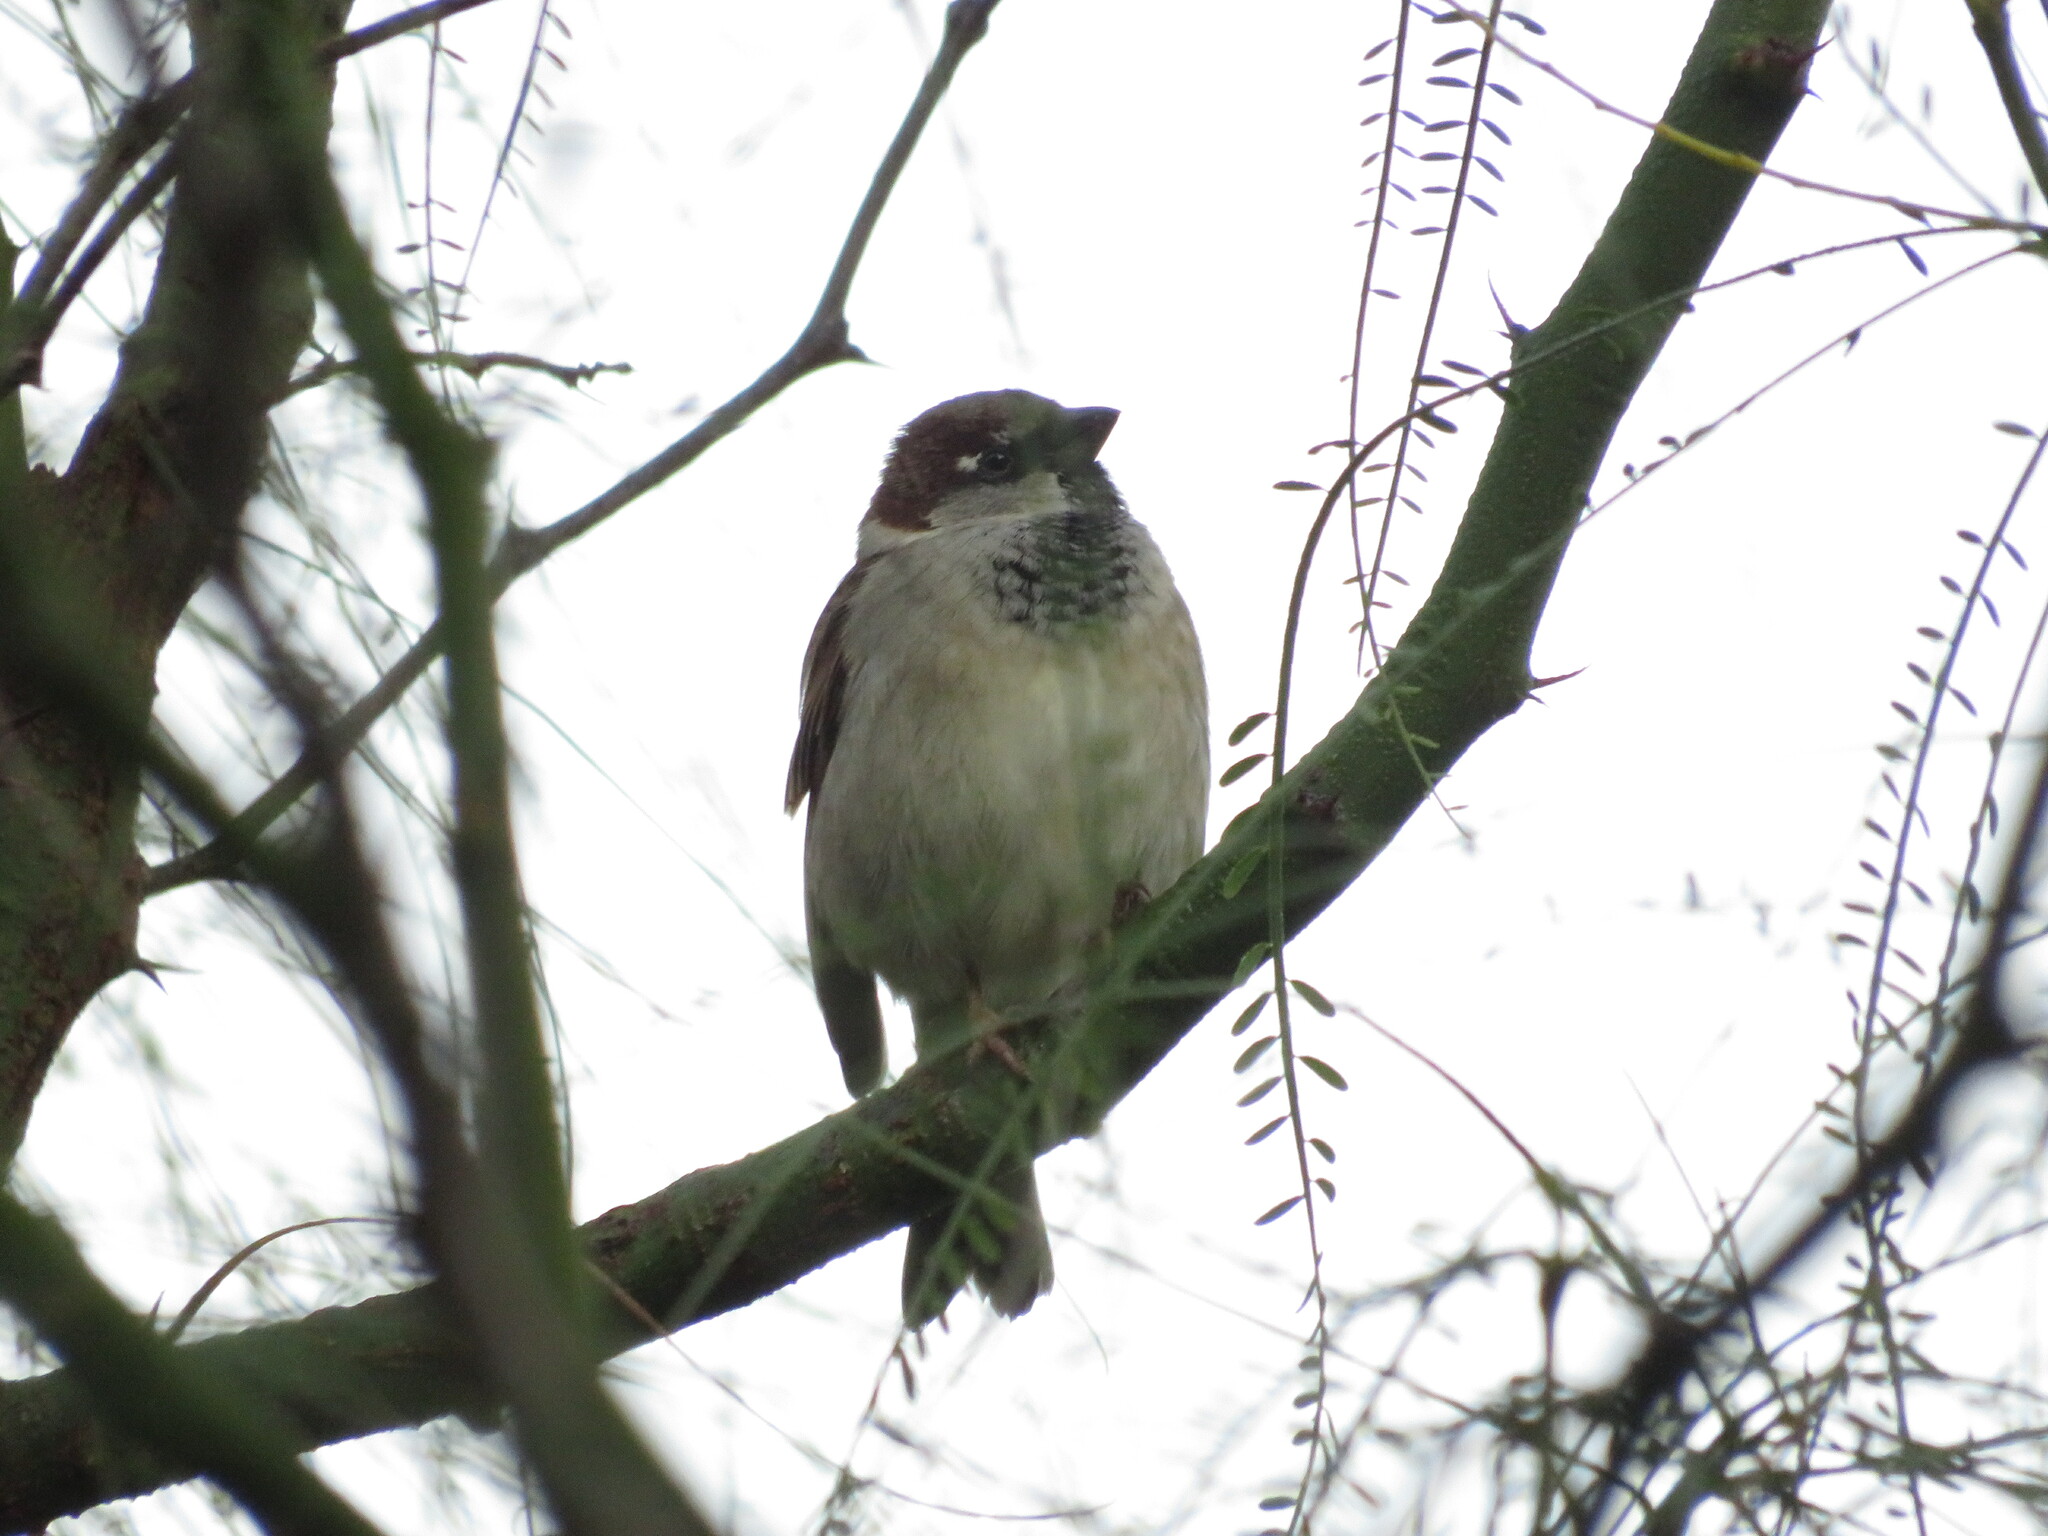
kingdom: Animalia
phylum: Chordata
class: Aves
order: Passeriformes
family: Passeridae
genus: Passer
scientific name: Passer domesticus
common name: House sparrow
